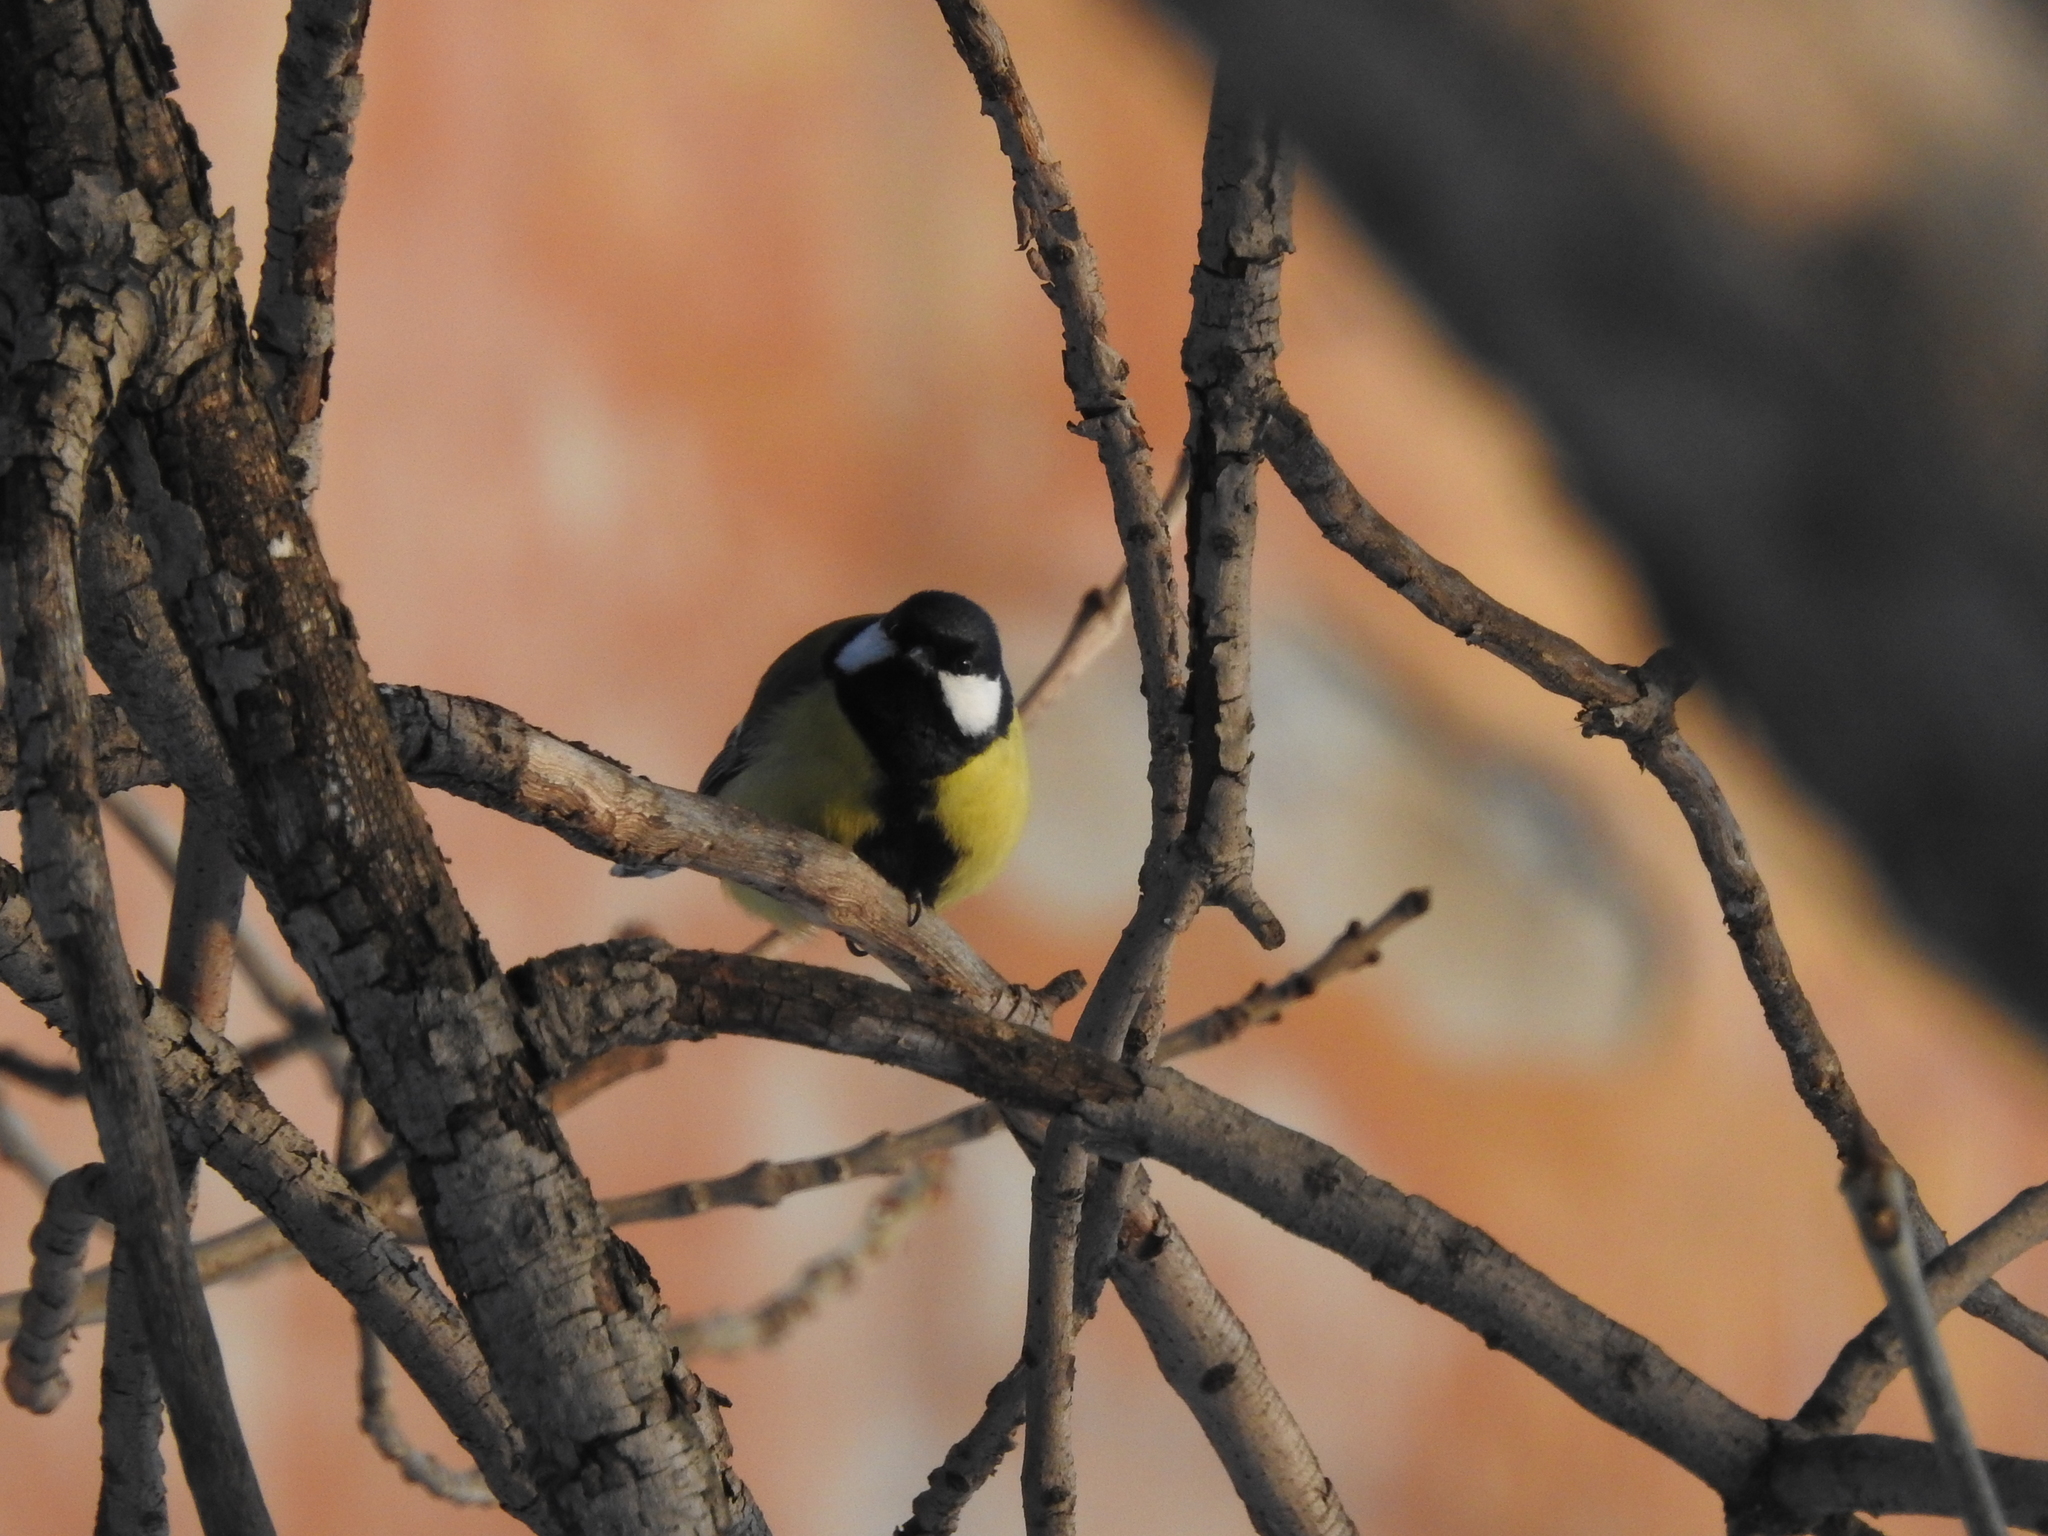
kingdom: Animalia
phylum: Chordata
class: Aves
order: Passeriformes
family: Paridae
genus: Parus
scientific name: Parus major
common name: Great tit
